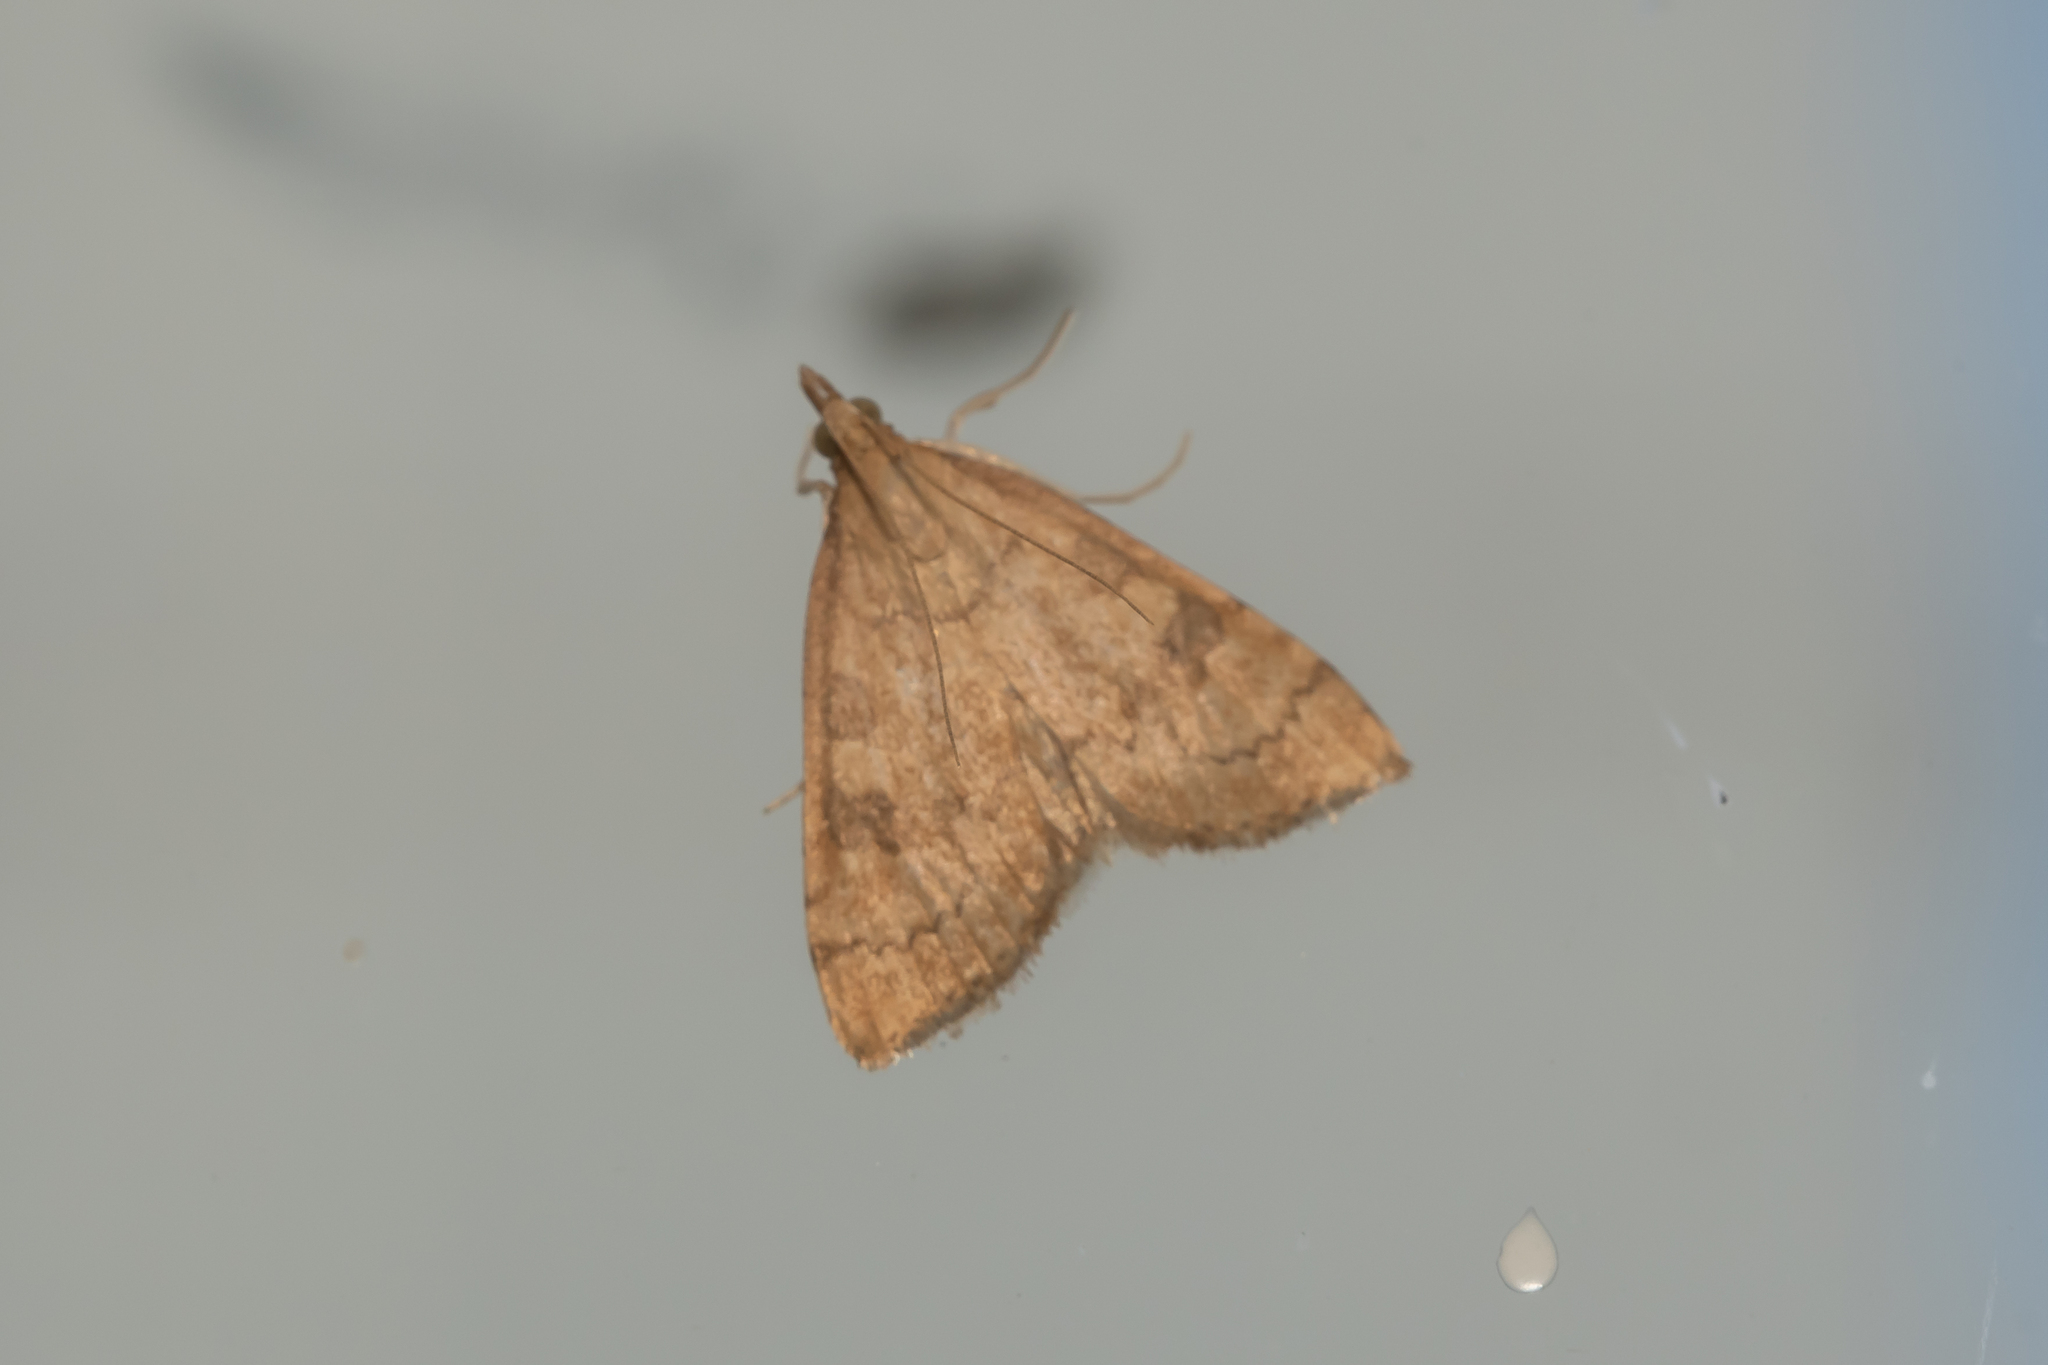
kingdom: Animalia
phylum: Arthropoda
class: Insecta
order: Lepidoptera
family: Crambidae
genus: Udea
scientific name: Udea fulvalis
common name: Fulvous pearl
